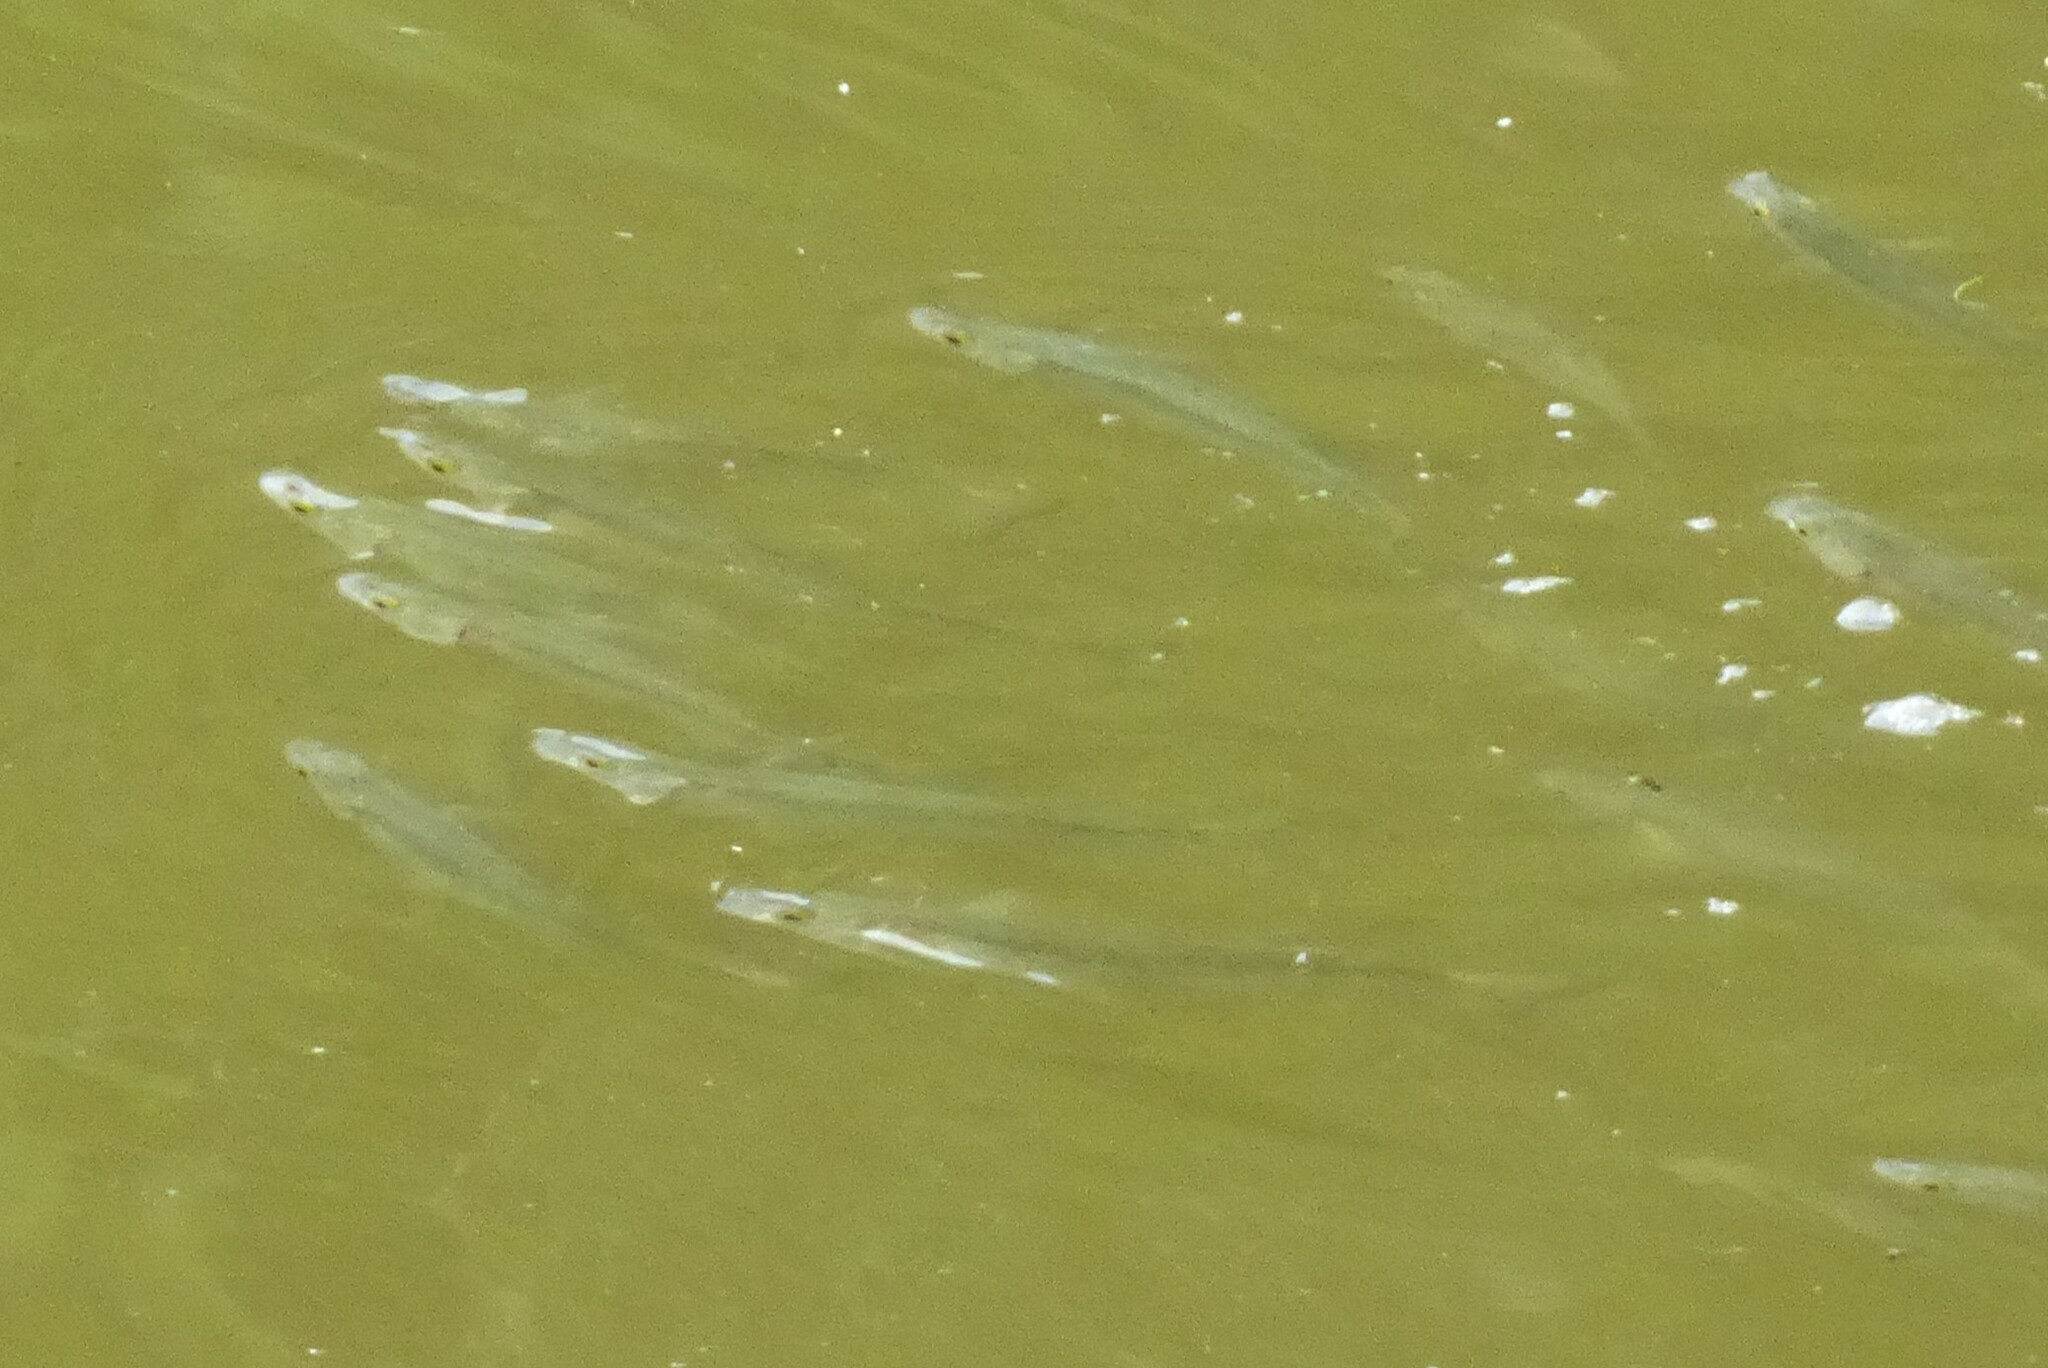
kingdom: Animalia
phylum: Chordata
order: Mugiliformes
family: Mugilidae
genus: Aldrichetta
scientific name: Aldrichetta forsteri
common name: Yellow-eye mullet
